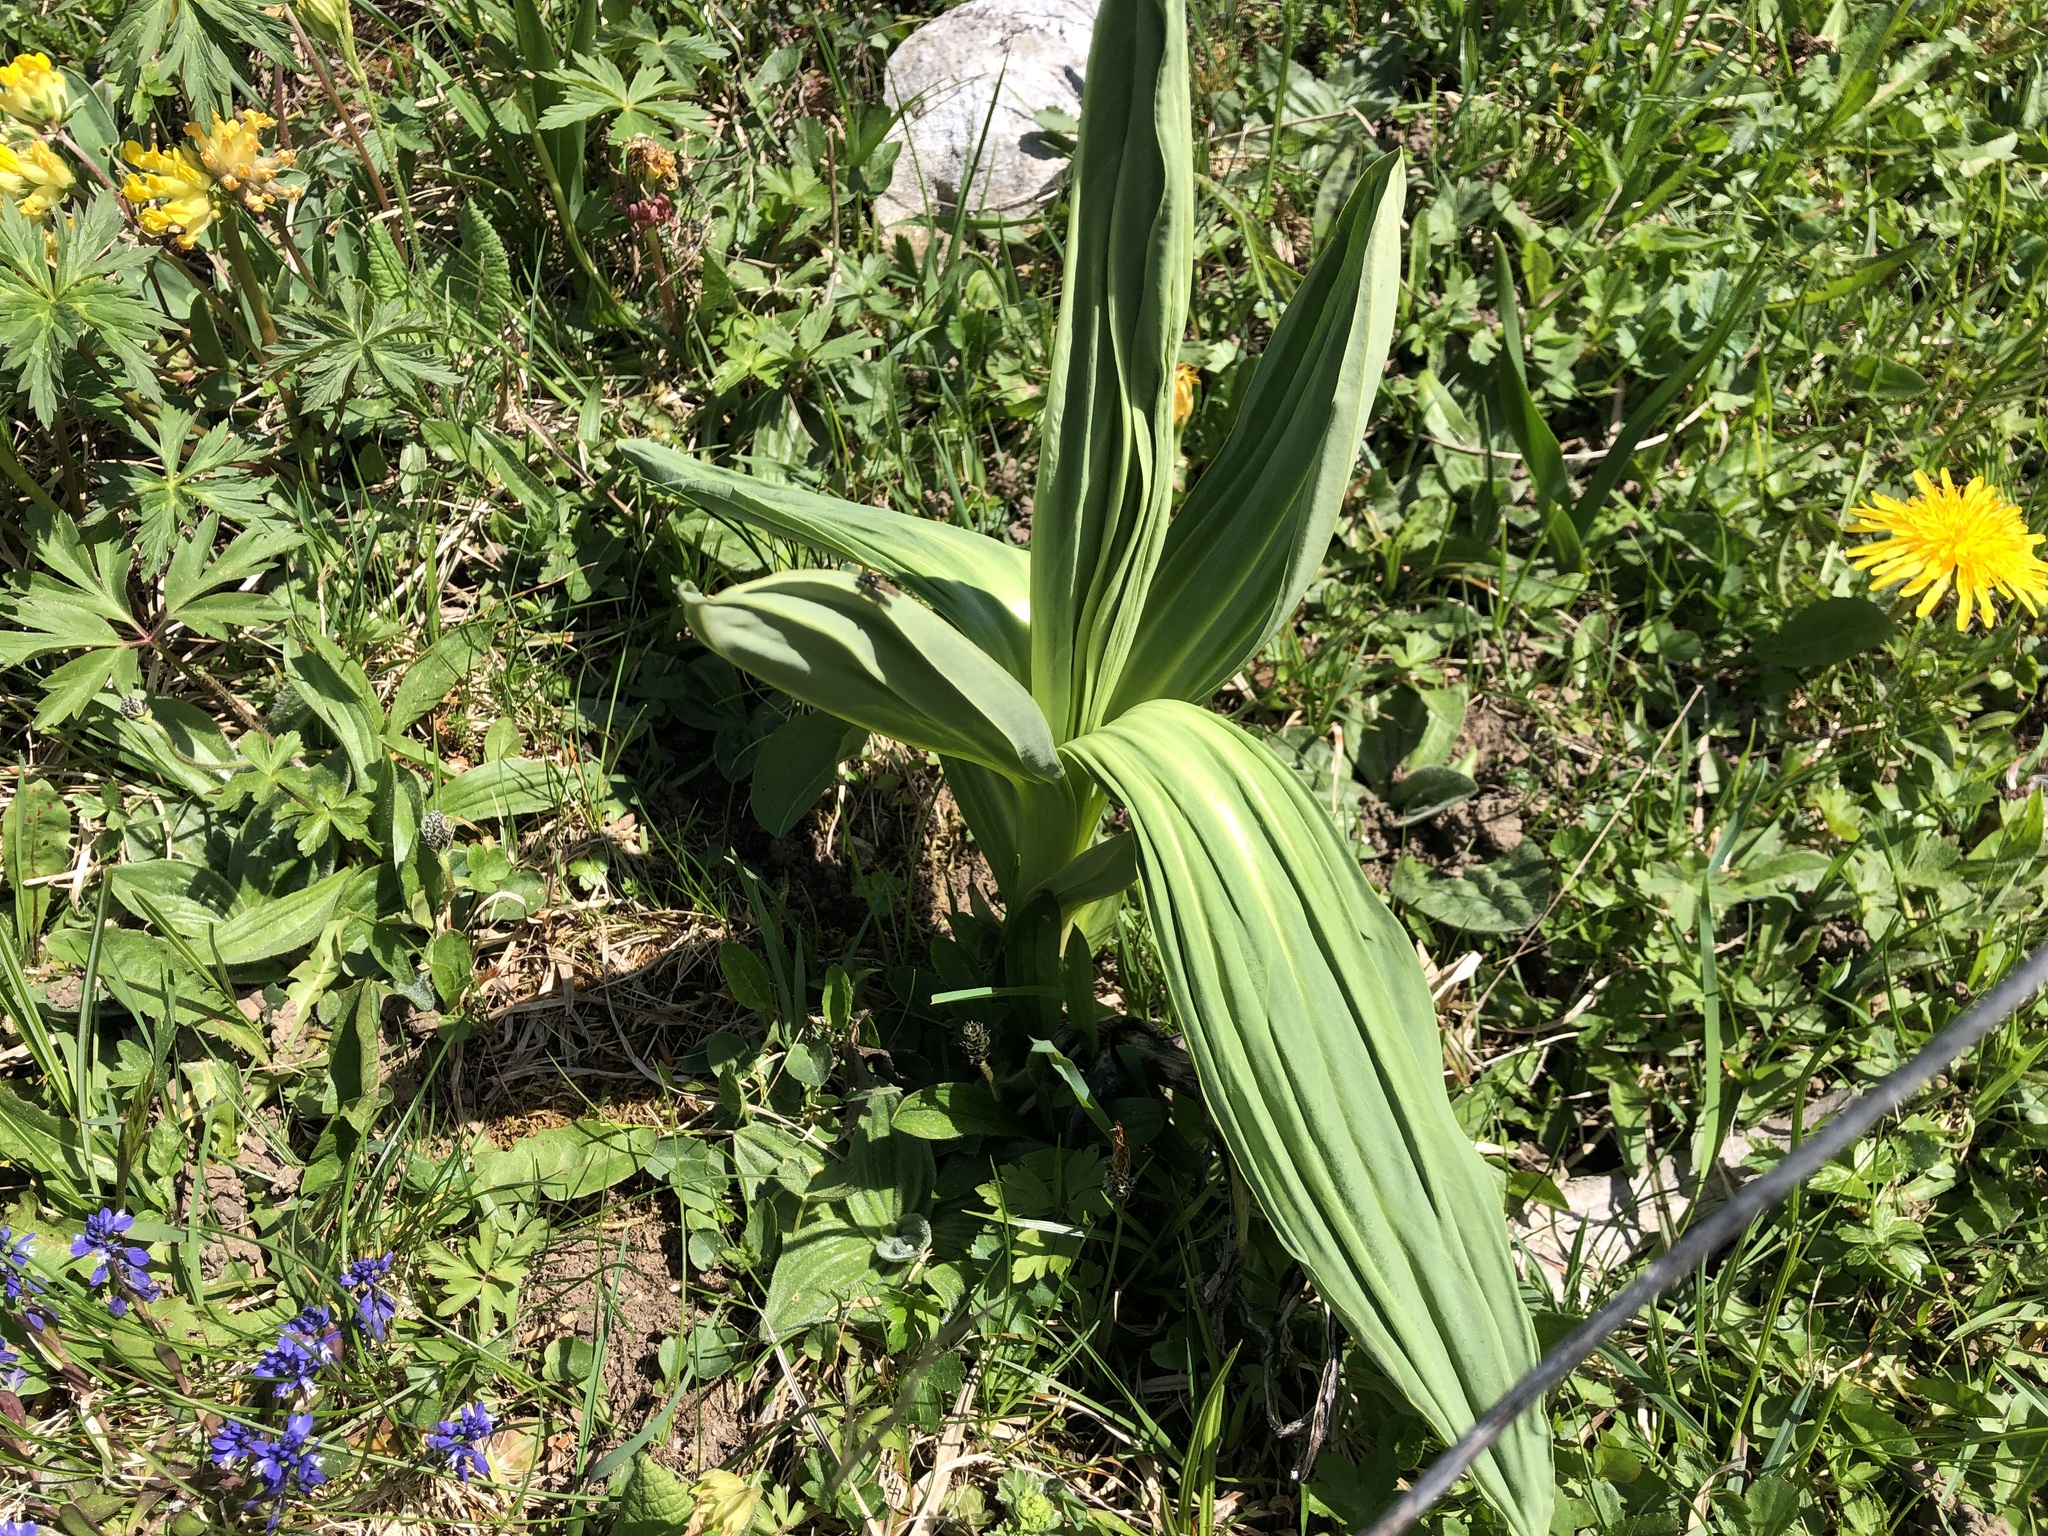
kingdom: Plantae
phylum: Tracheophyta
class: Magnoliopsida
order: Gentianales
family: Gentianaceae
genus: Gentiana
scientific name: Gentiana lutea
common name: Great yellow gentian
